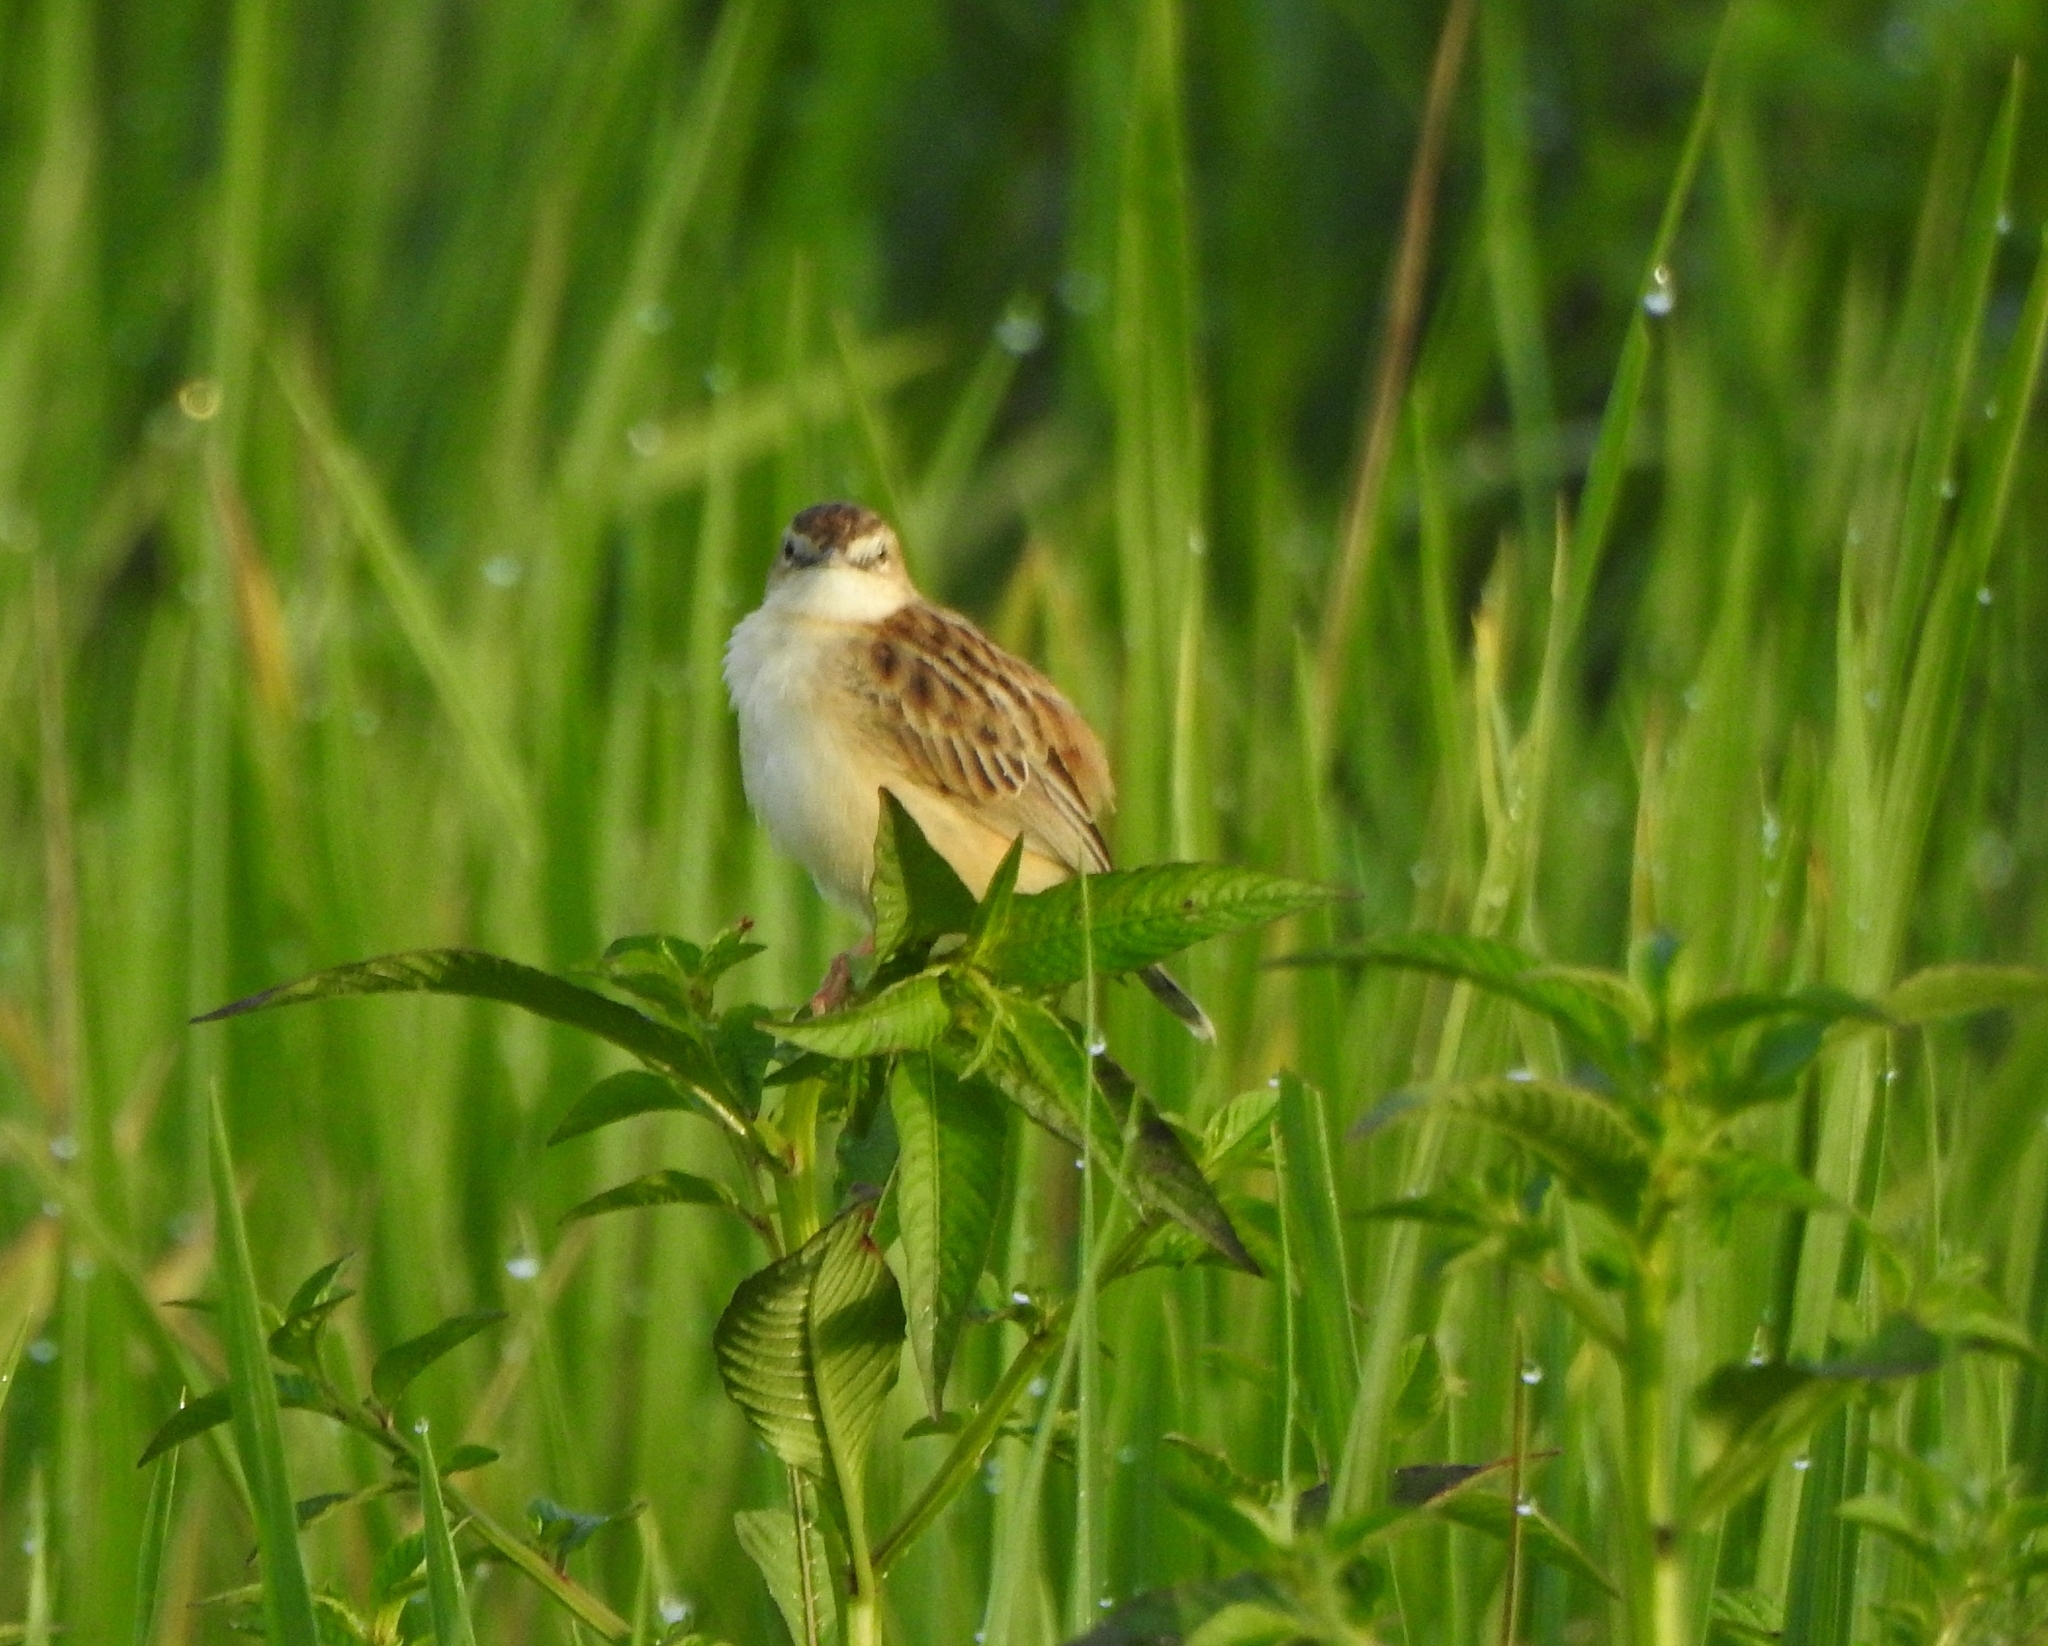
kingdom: Animalia
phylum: Chordata
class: Aves
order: Passeriformes
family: Cisticolidae
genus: Cisticola
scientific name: Cisticola juncidis
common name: Zitting cisticola
